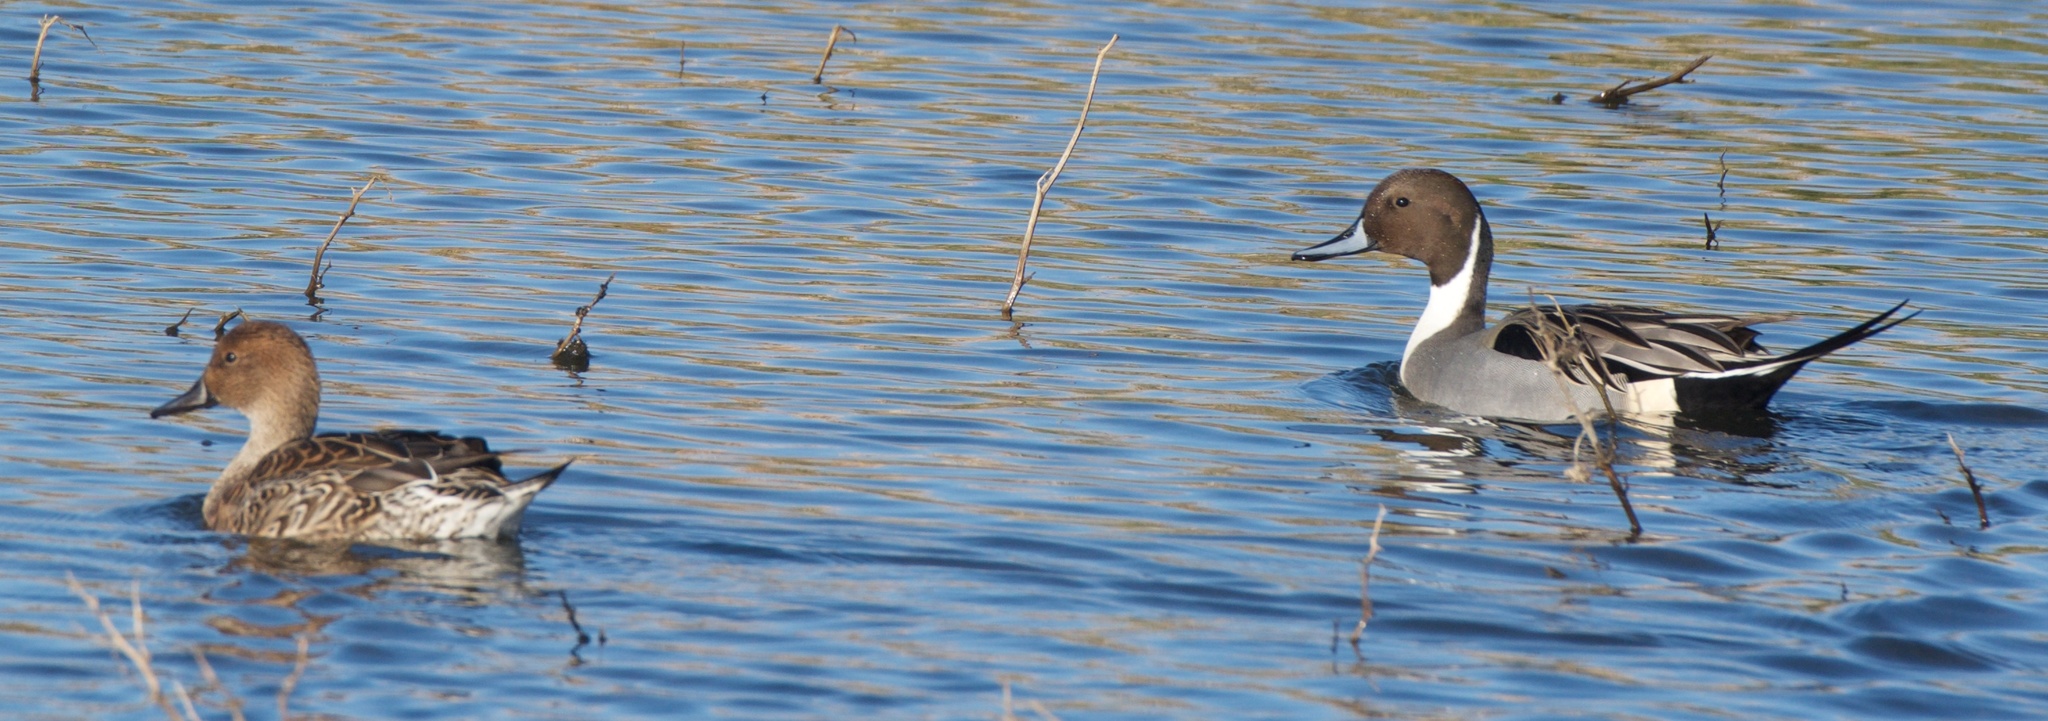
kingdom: Animalia
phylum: Chordata
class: Aves
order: Anseriformes
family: Anatidae
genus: Anas
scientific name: Anas acuta
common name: Northern pintail
